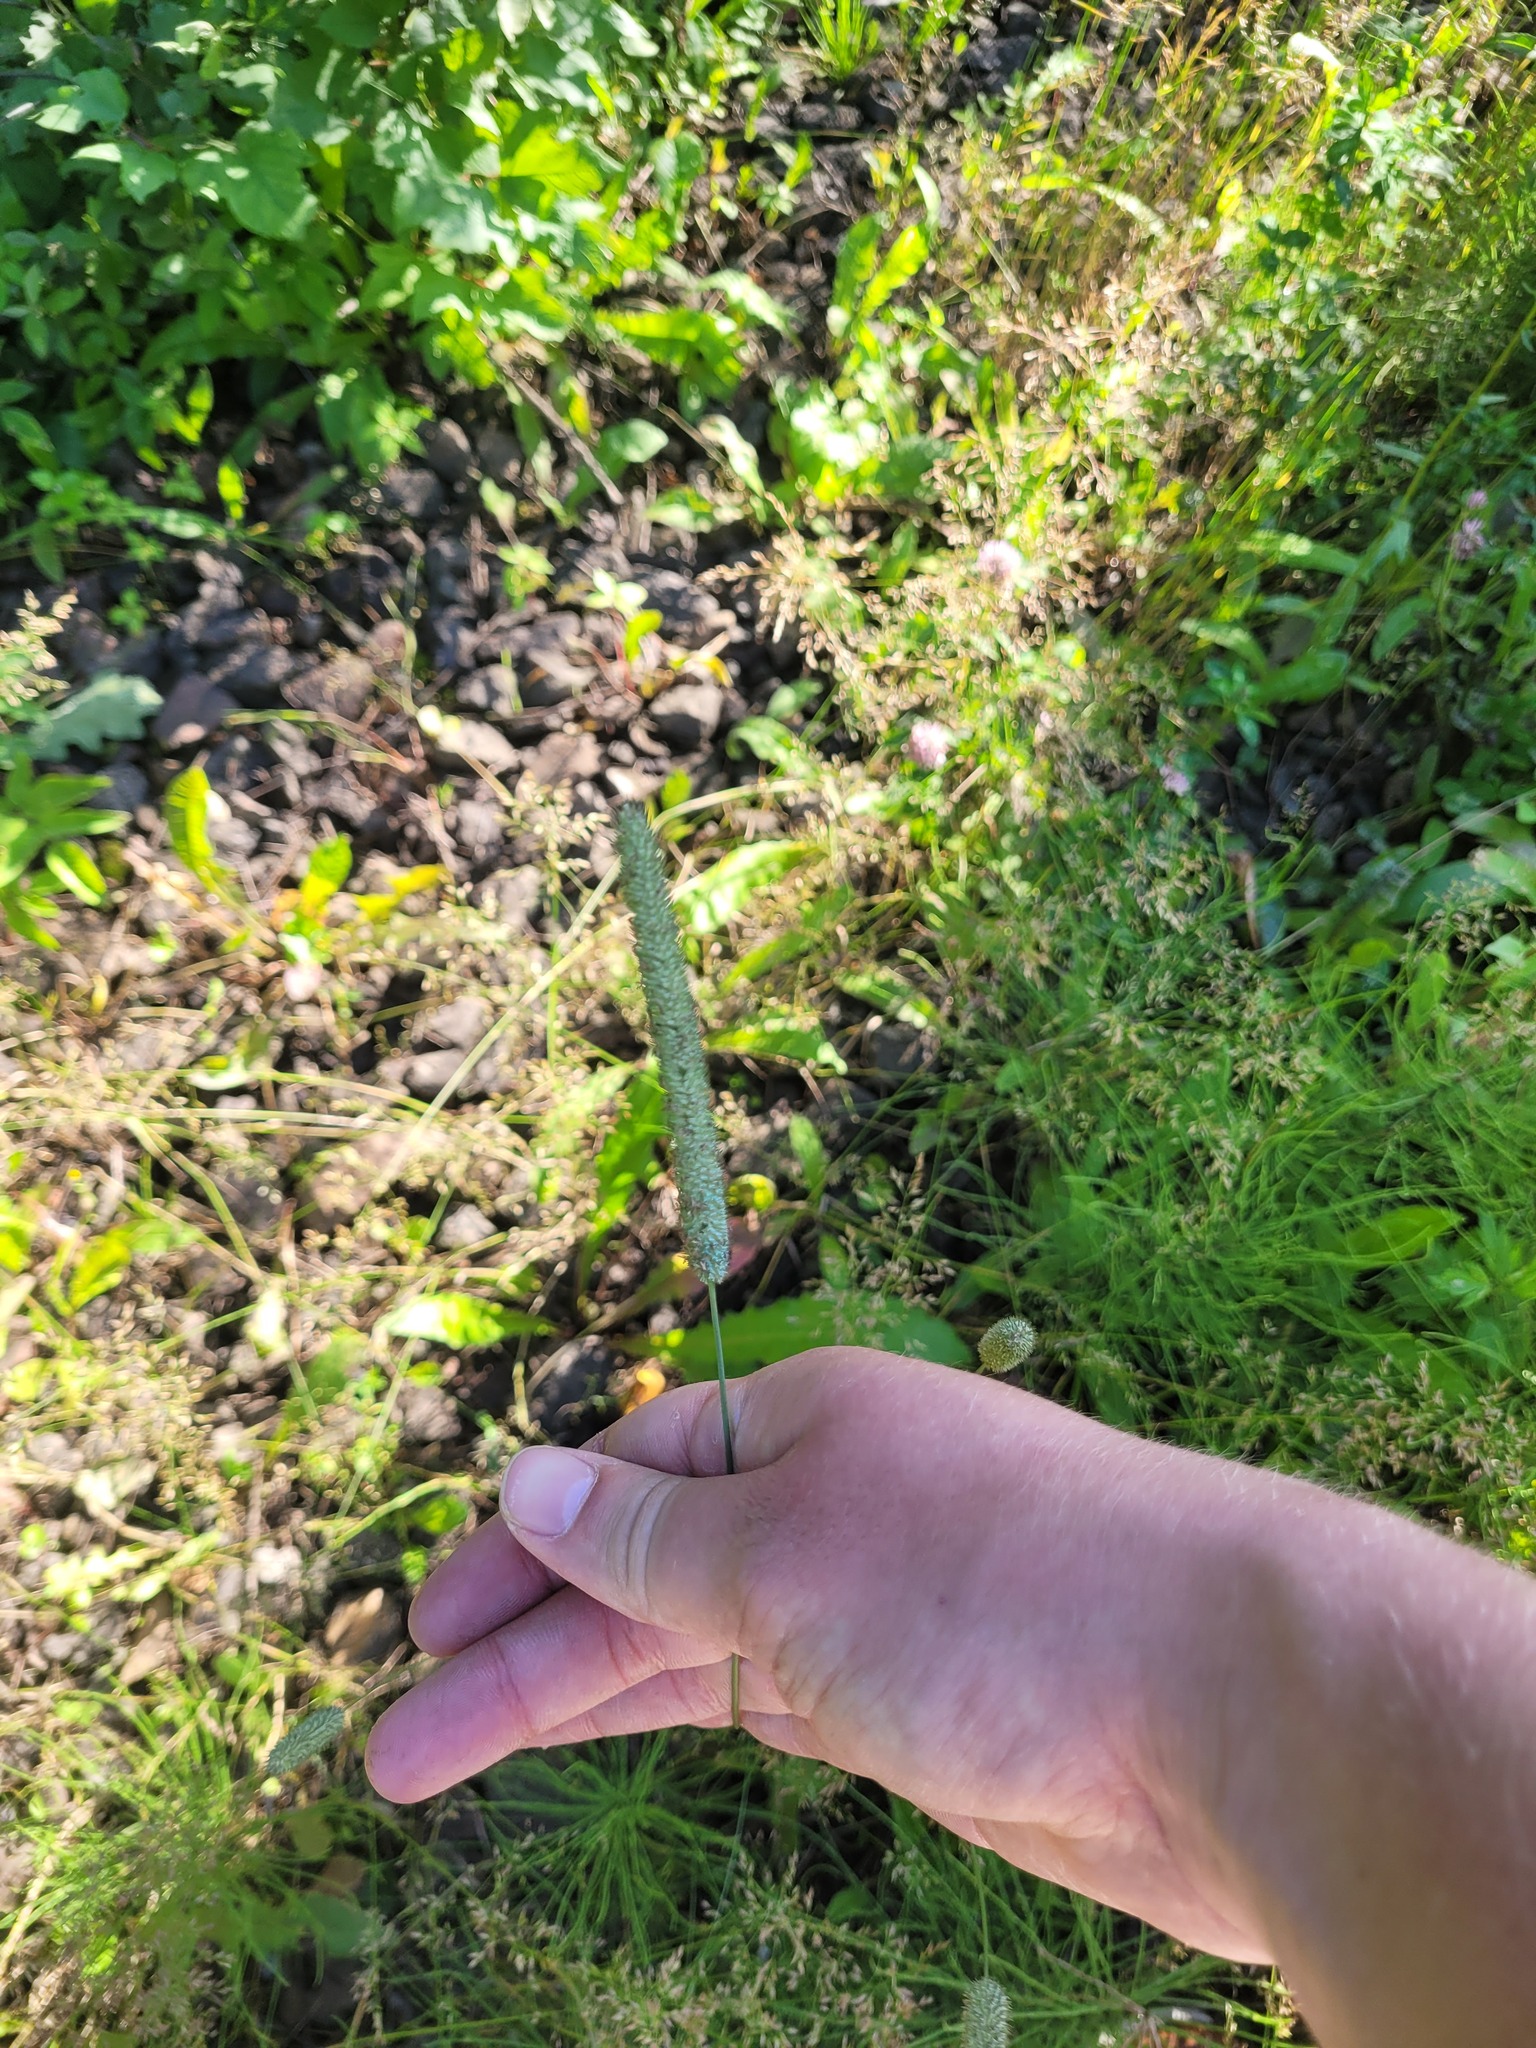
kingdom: Plantae
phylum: Tracheophyta
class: Liliopsida
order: Poales
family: Poaceae
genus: Phleum
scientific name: Phleum pratense
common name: Timothy grass
